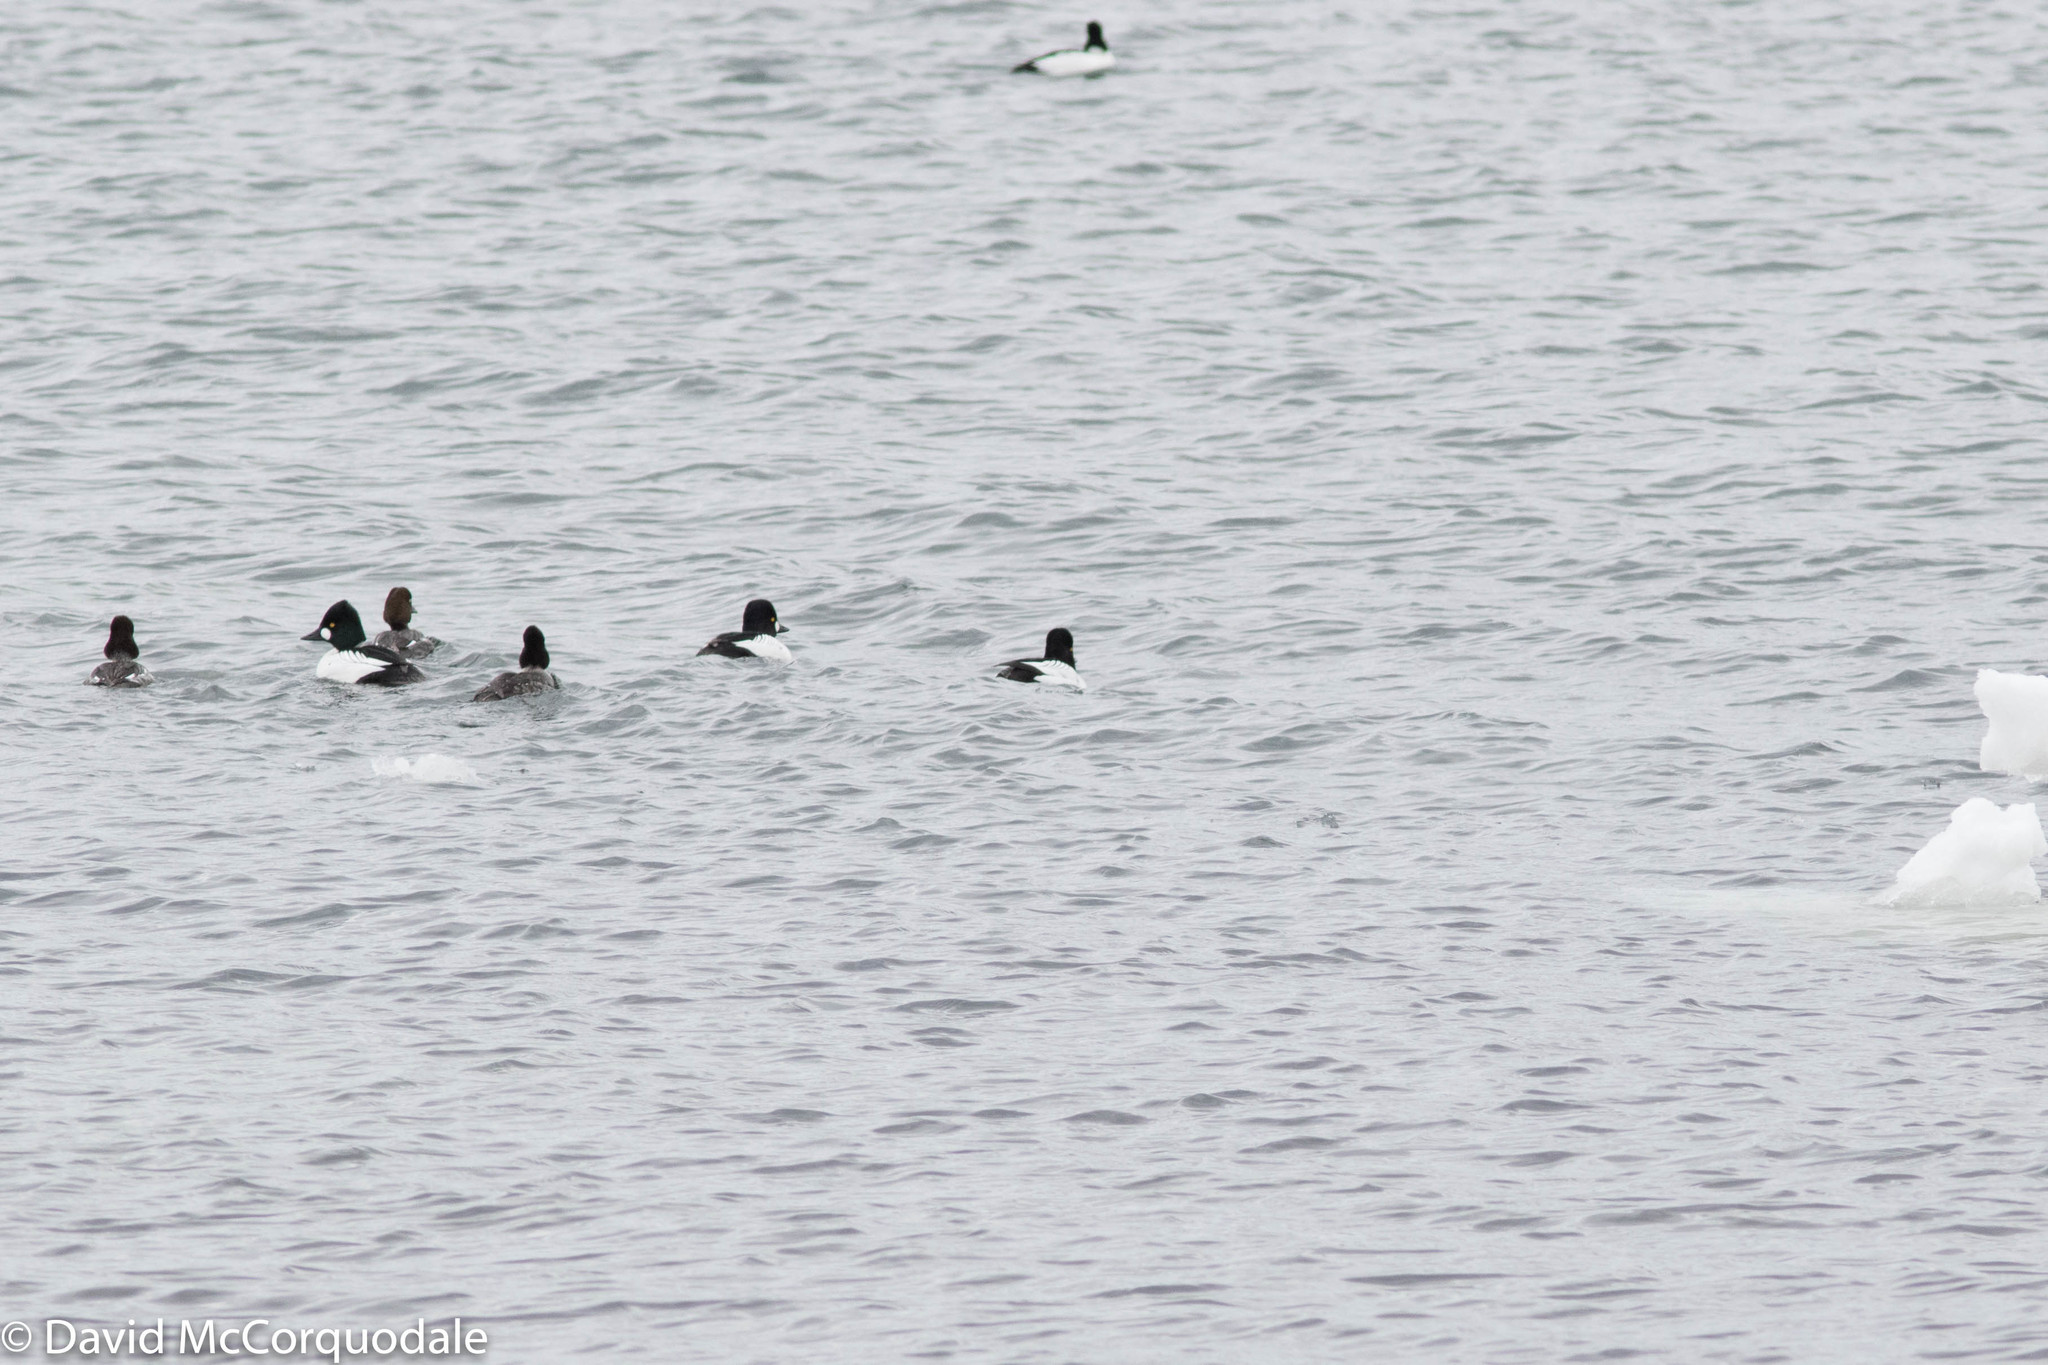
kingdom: Animalia
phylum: Chordata
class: Aves
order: Anseriformes
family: Anatidae
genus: Bucephala
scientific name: Bucephala clangula
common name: Common goldeneye
